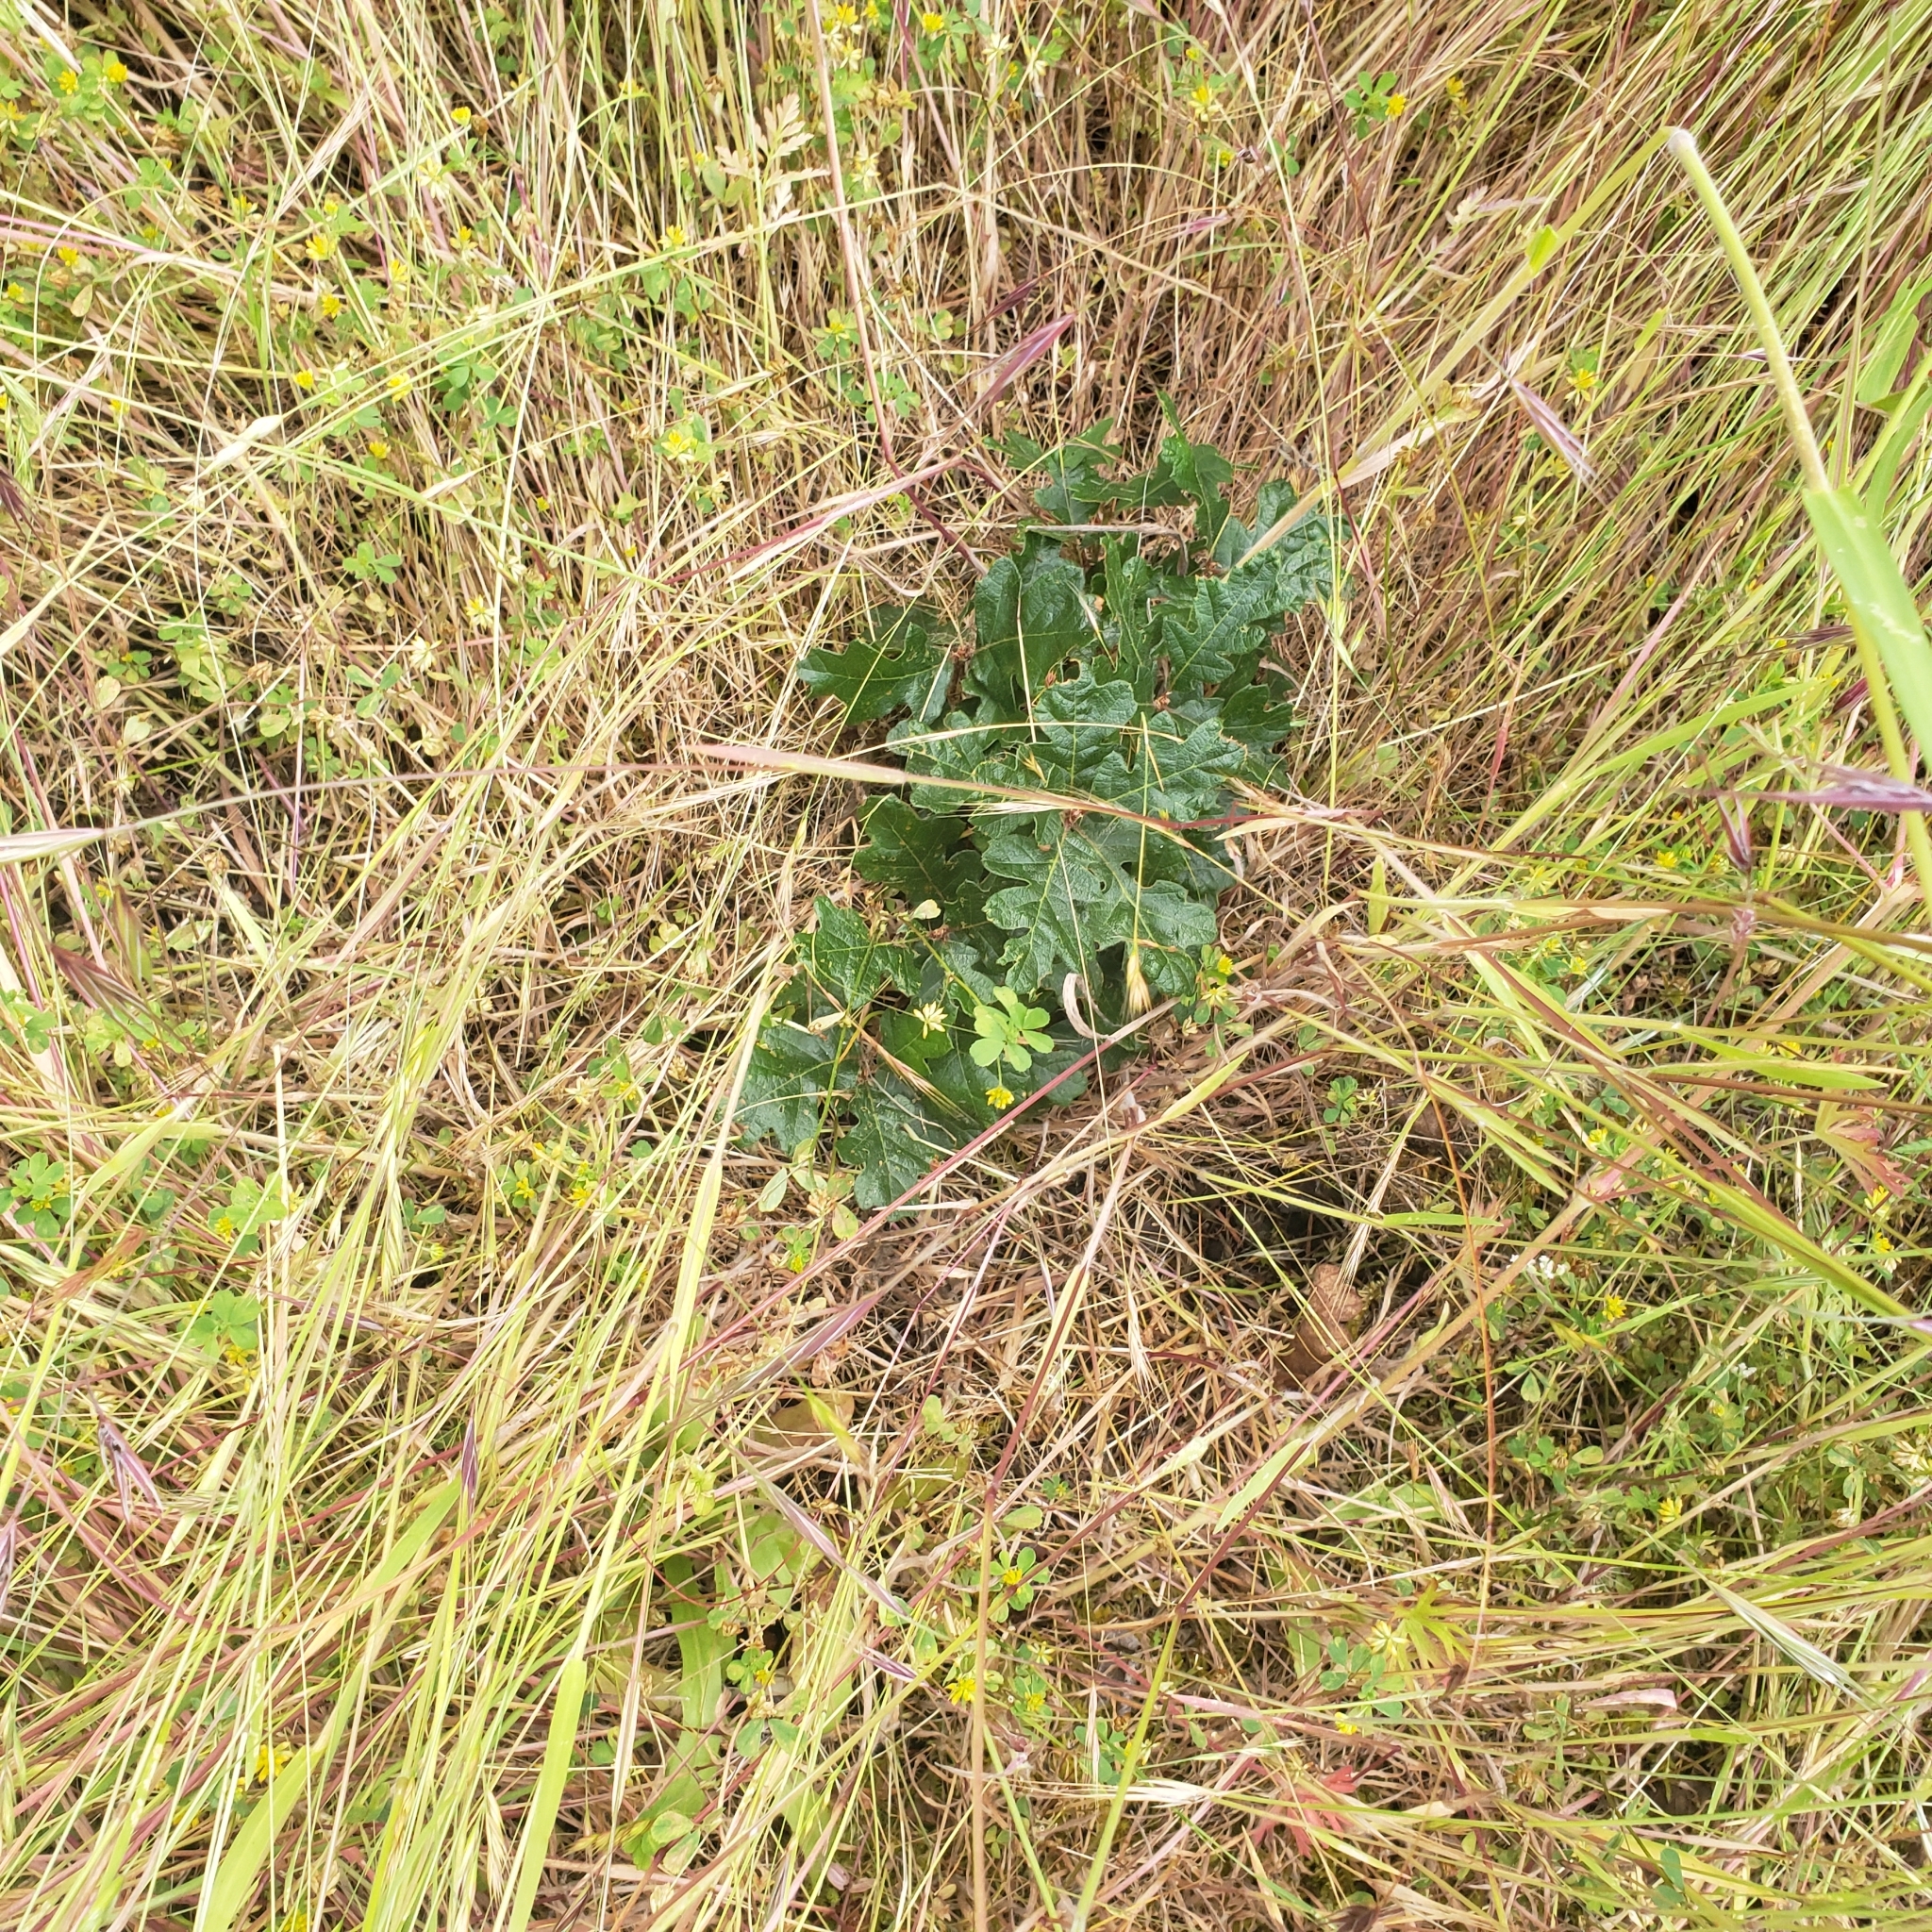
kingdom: Plantae
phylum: Tracheophyta
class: Magnoliopsida
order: Fagales
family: Fagaceae
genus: Quercus
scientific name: Quercus garryana
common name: Garry oak
